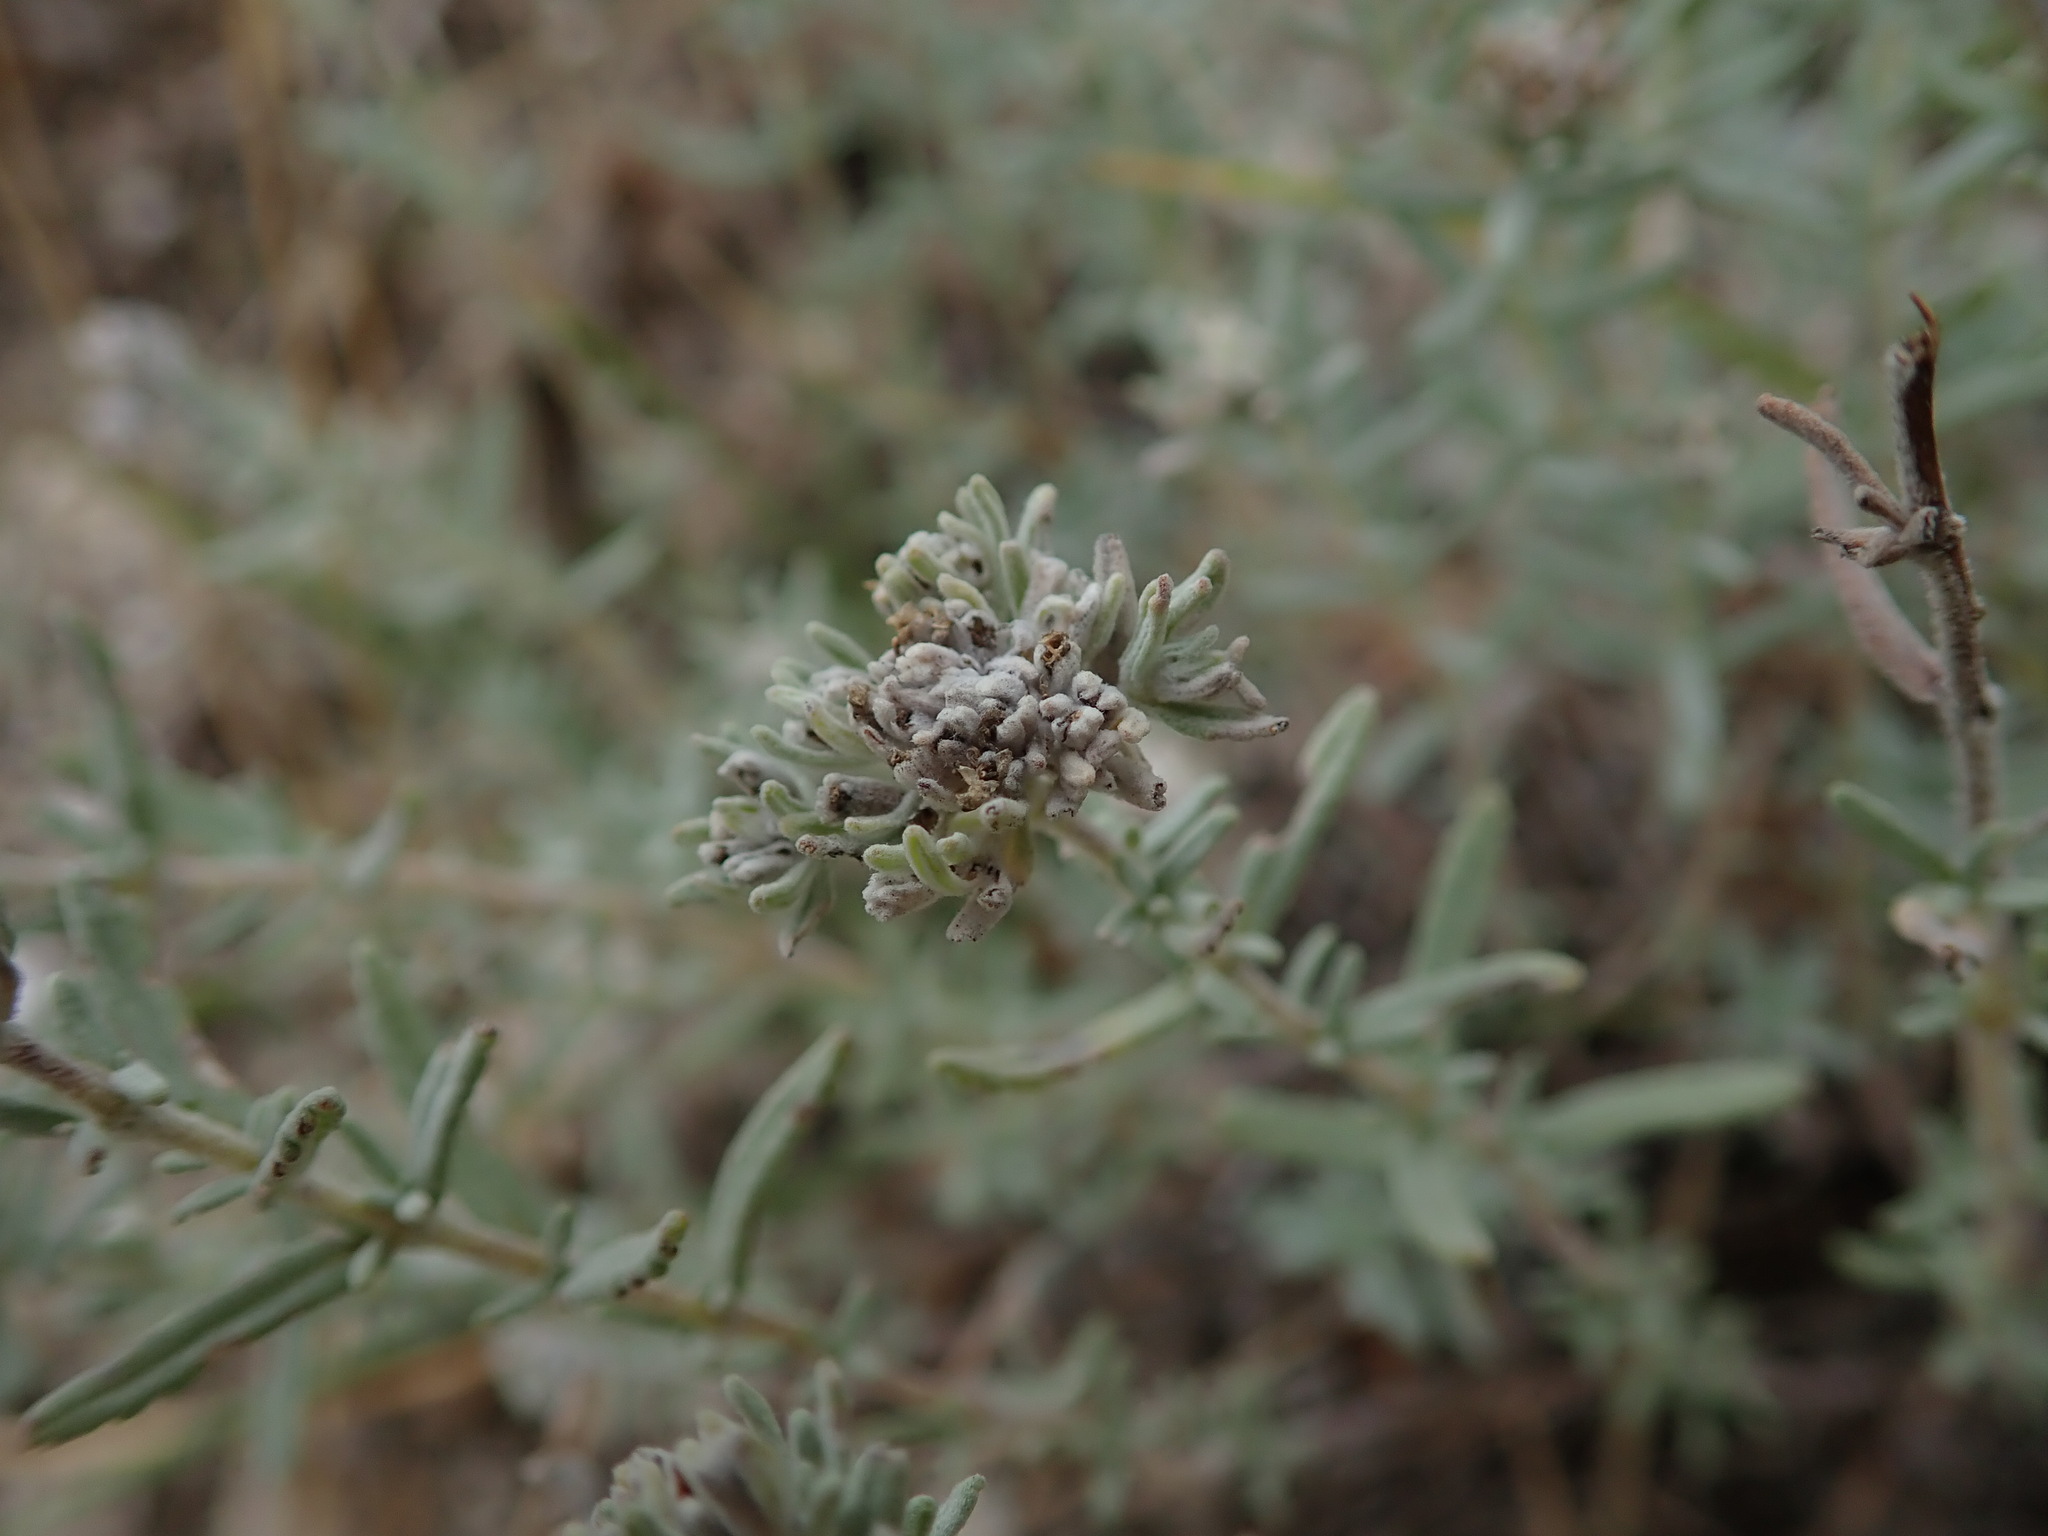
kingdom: Plantae
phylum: Tracheophyta
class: Magnoliopsida
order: Lamiales
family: Lamiaceae
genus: Teucrium
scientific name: Teucrium capitatum
